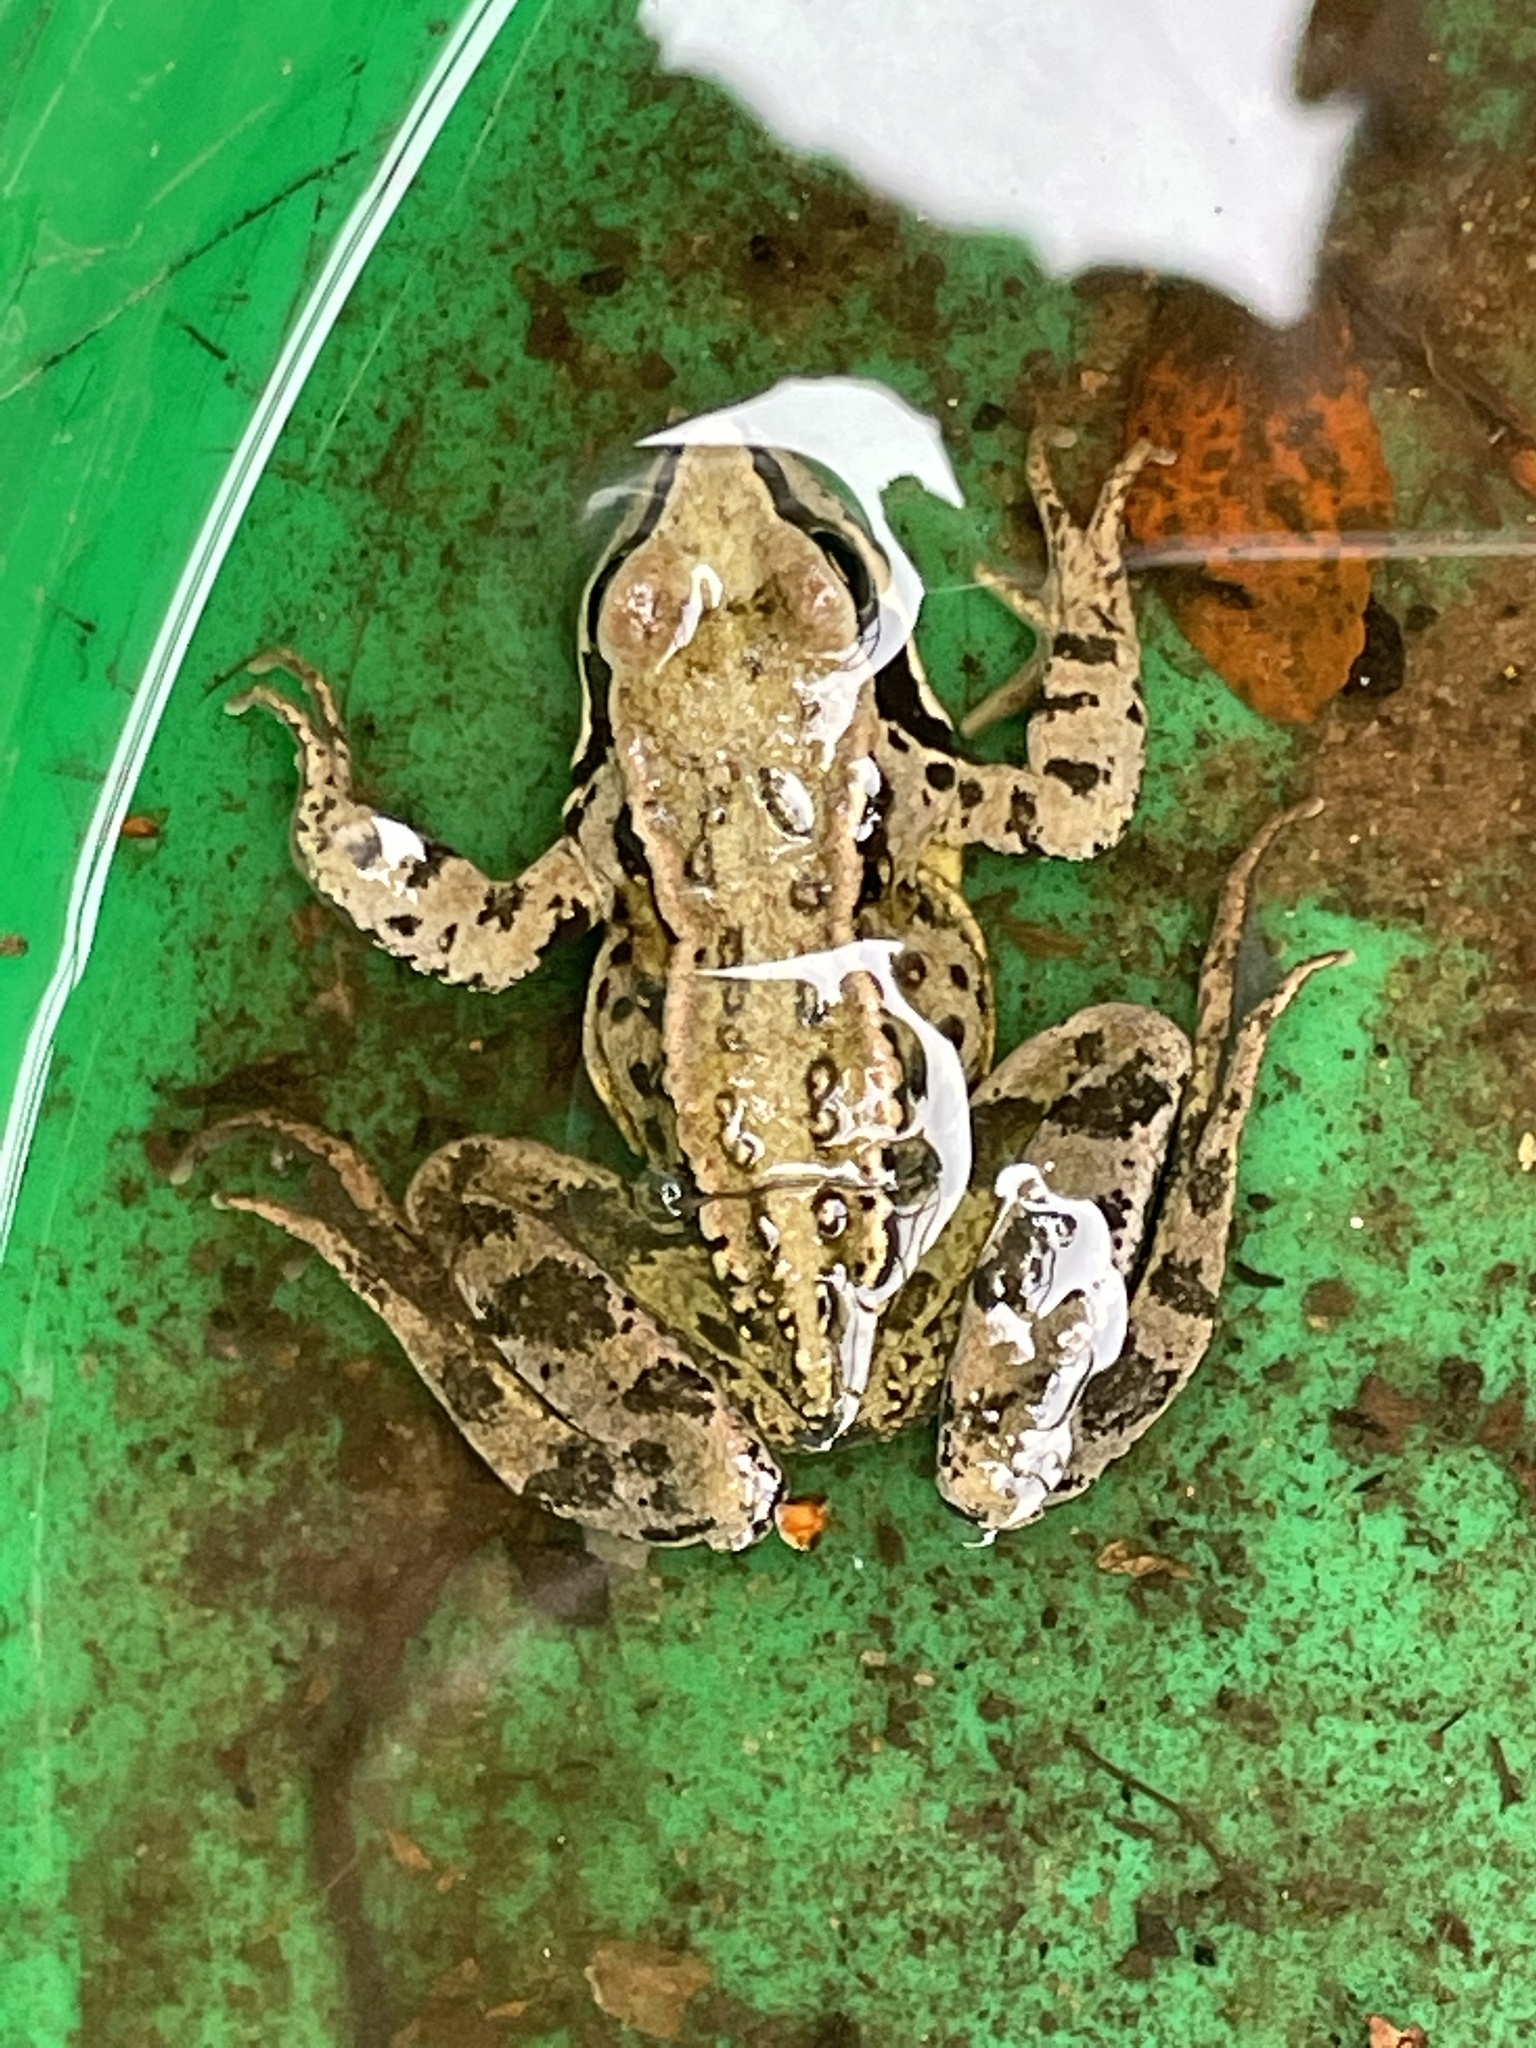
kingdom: Animalia
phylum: Chordata
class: Amphibia
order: Anura
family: Ranidae
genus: Rana
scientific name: Rana temporaria
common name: Common frog
